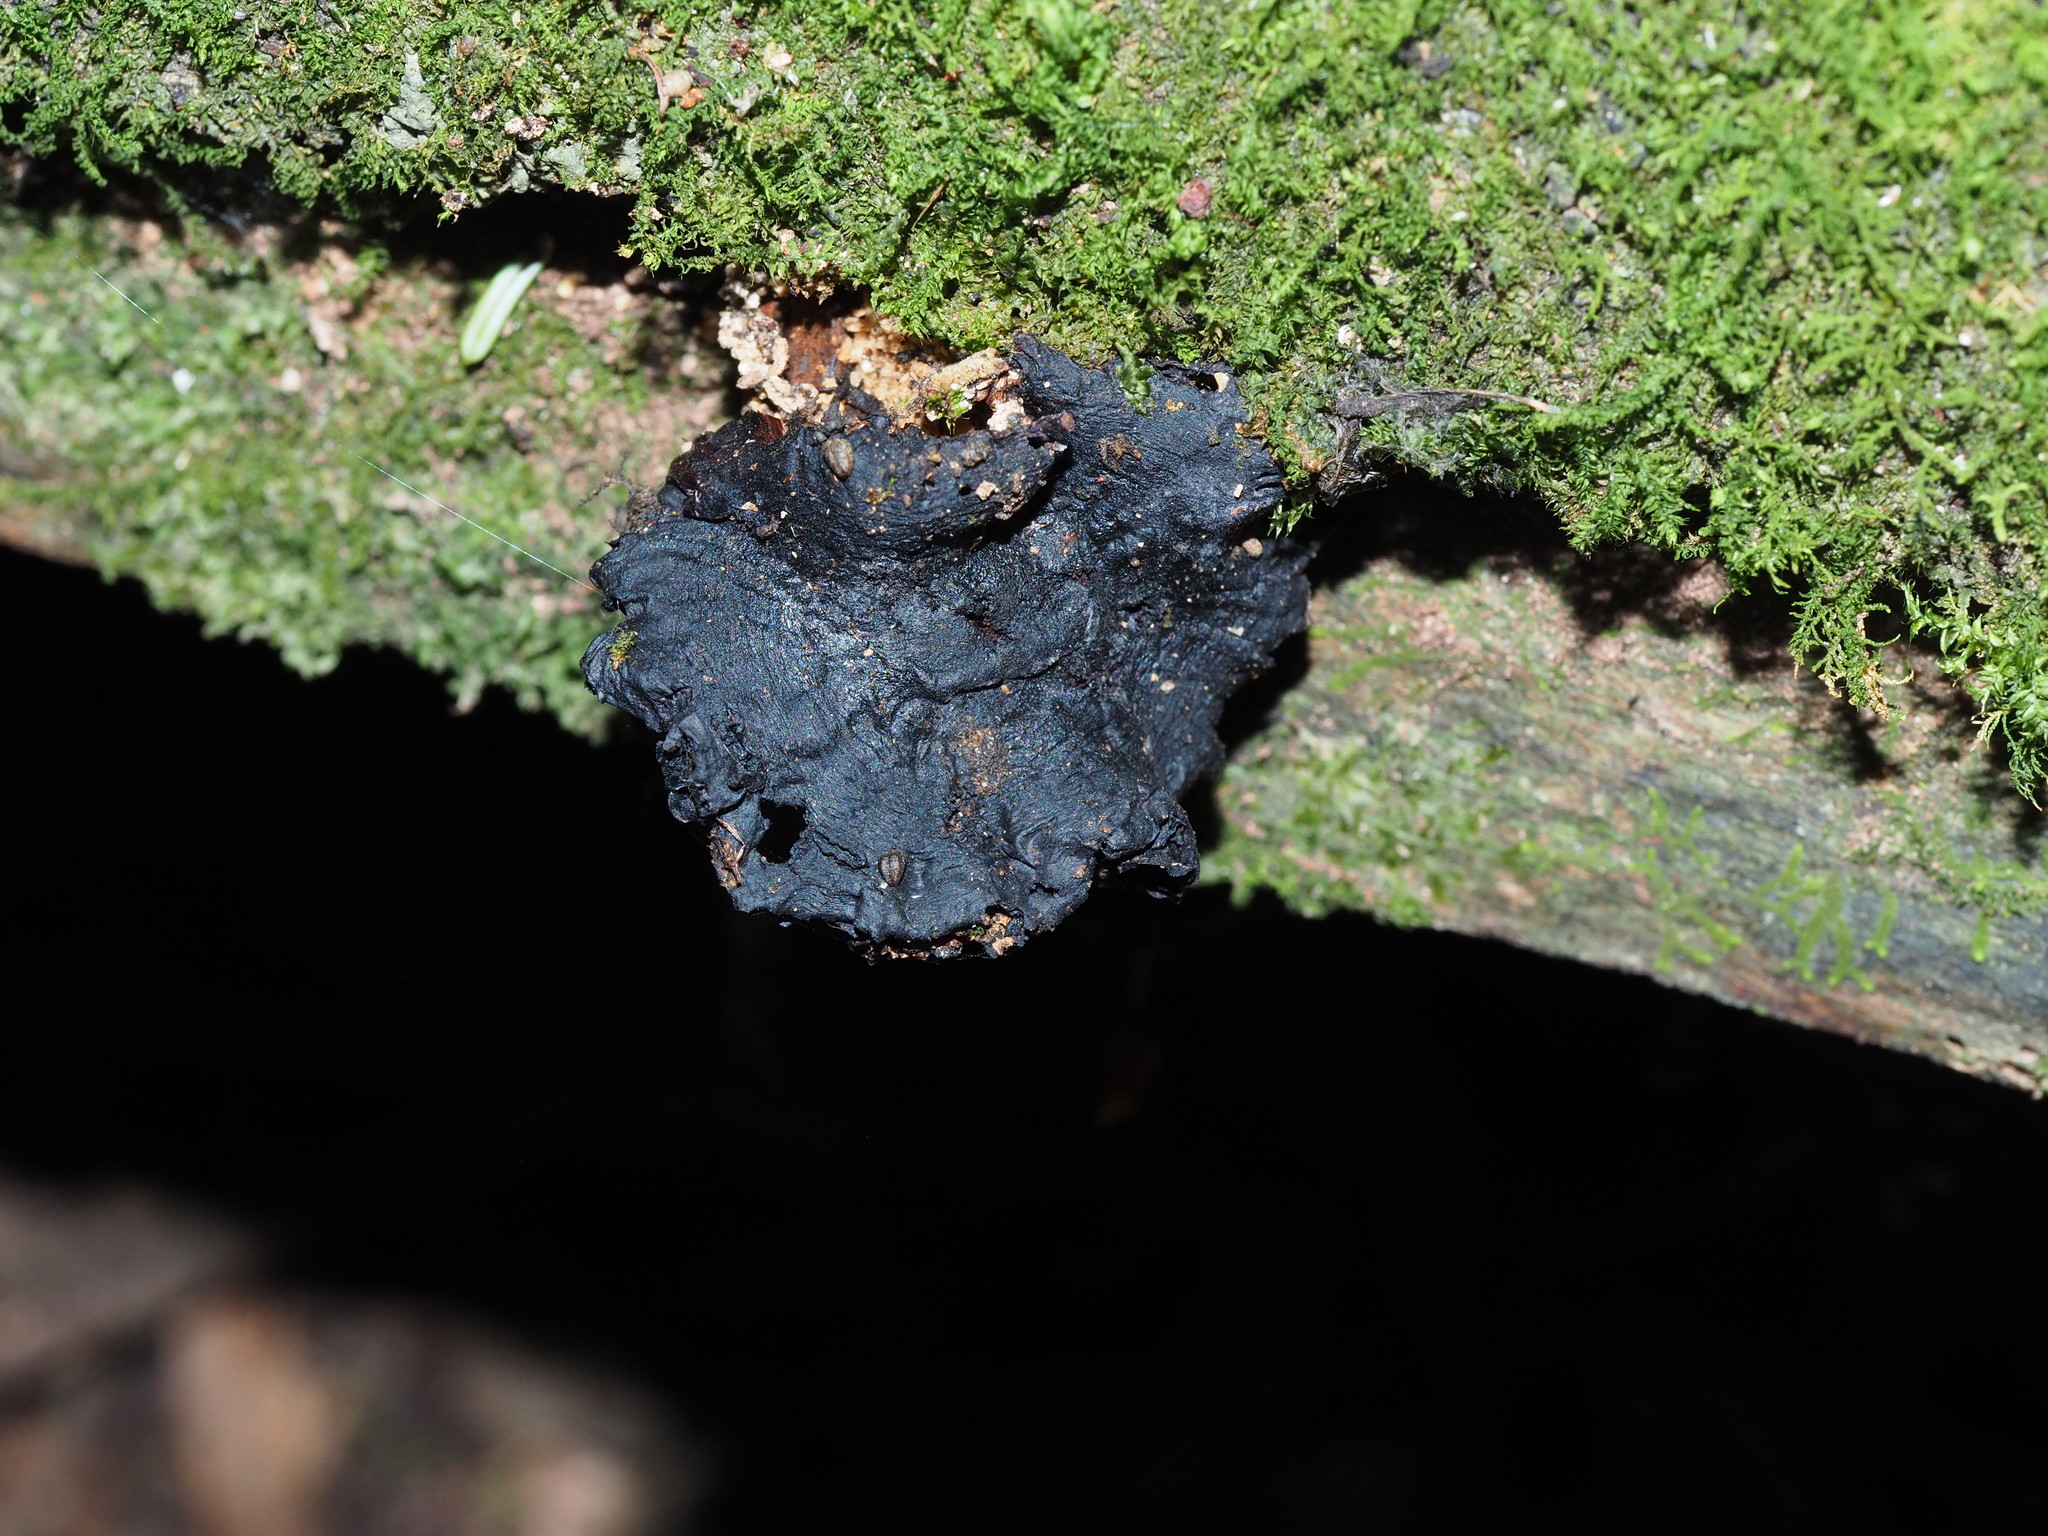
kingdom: Fungi
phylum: Basidiomycota
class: Agaricomycetes
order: Agaricales
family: Mycenaceae
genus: Heimiomyces
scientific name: Heimiomyces velutipes
